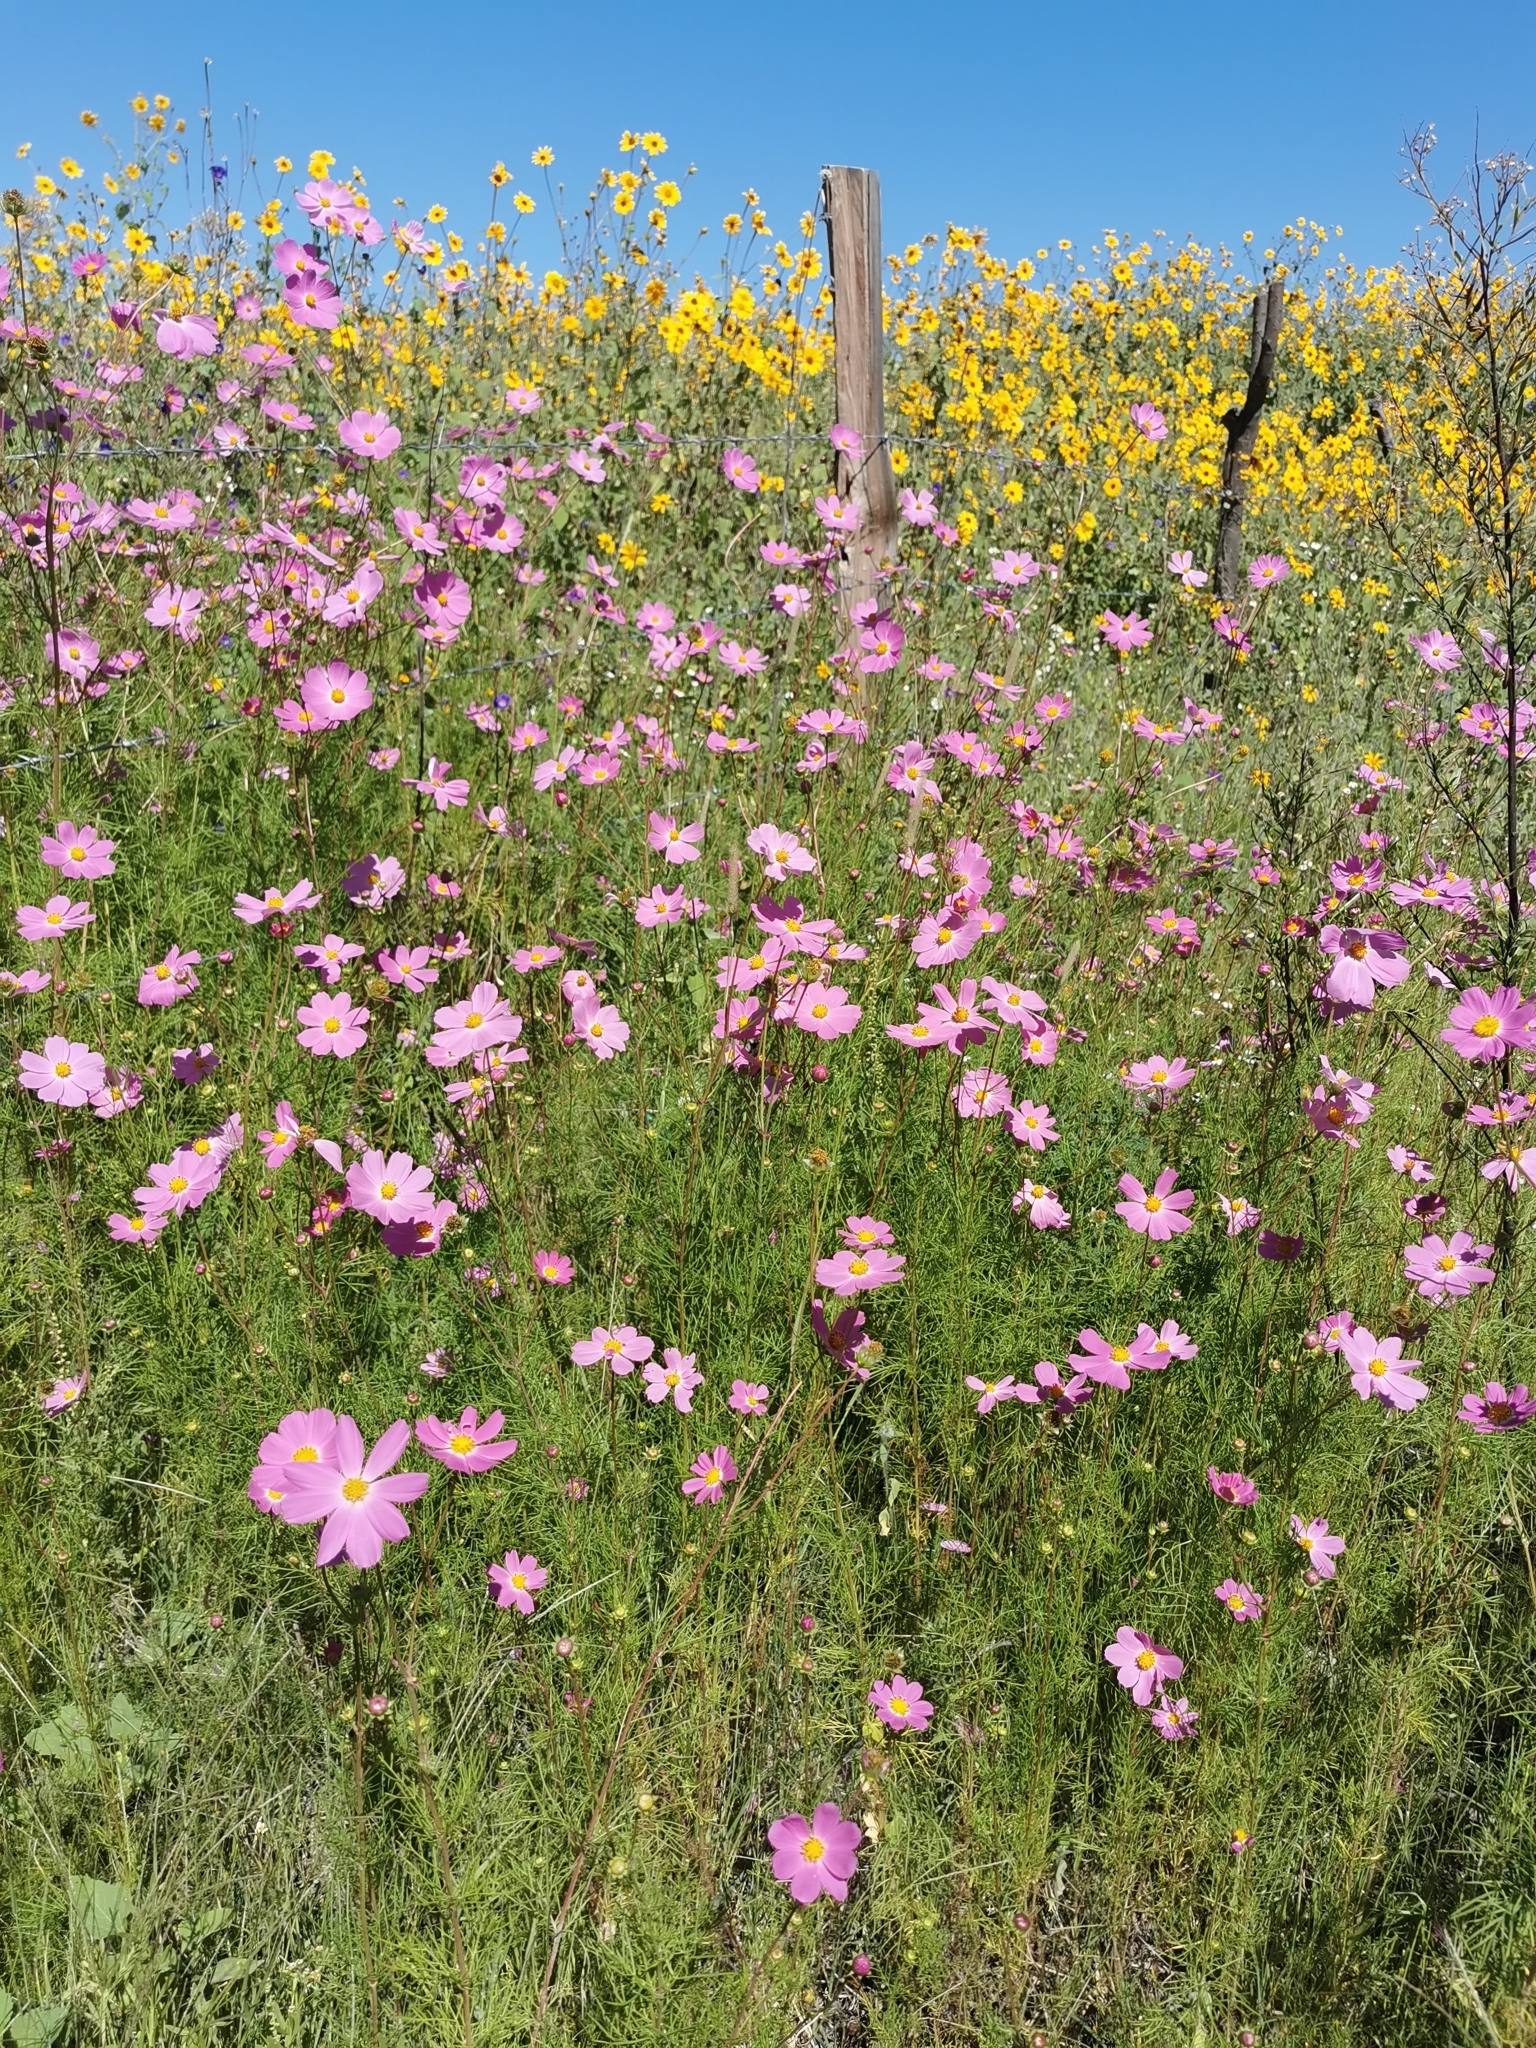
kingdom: Plantae
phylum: Tracheophyta
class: Magnoliopsida
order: Asterales
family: Asteraceae
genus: Cosmos
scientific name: Cosmos bipinnatus
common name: Garden cosmos
